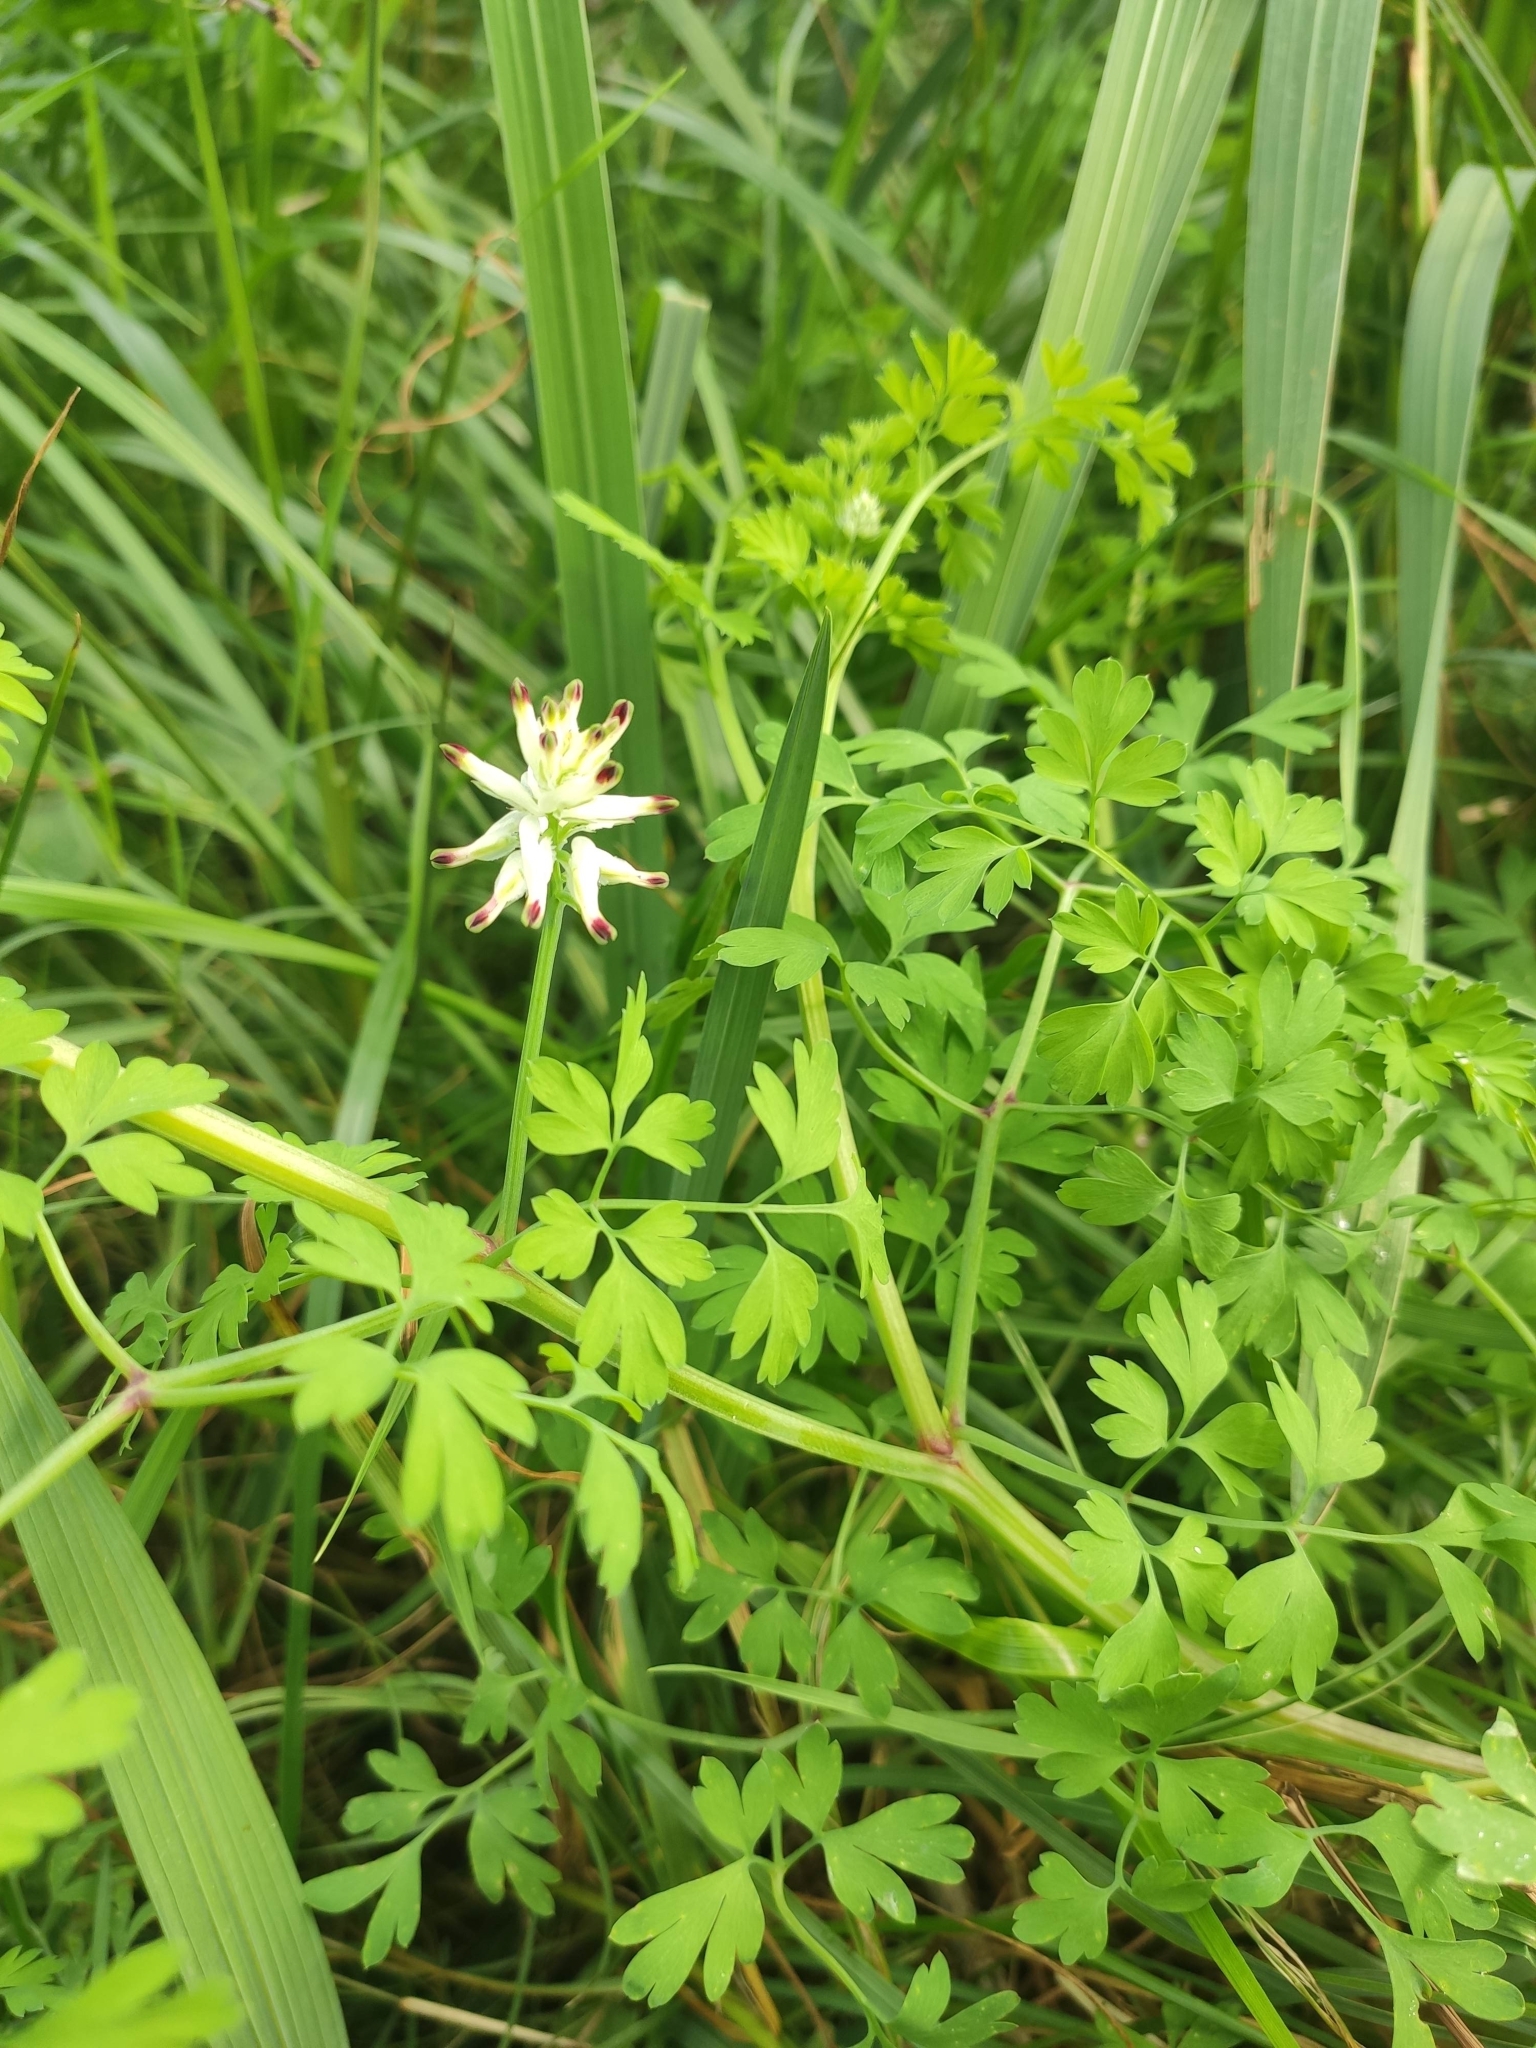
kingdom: Plantae
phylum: Tracheophyta
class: Magnoliopsida
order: Ranunculales
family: Papaveraceae
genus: Fumaria
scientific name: Fumaria capreolata
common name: White ramping-fumitory
